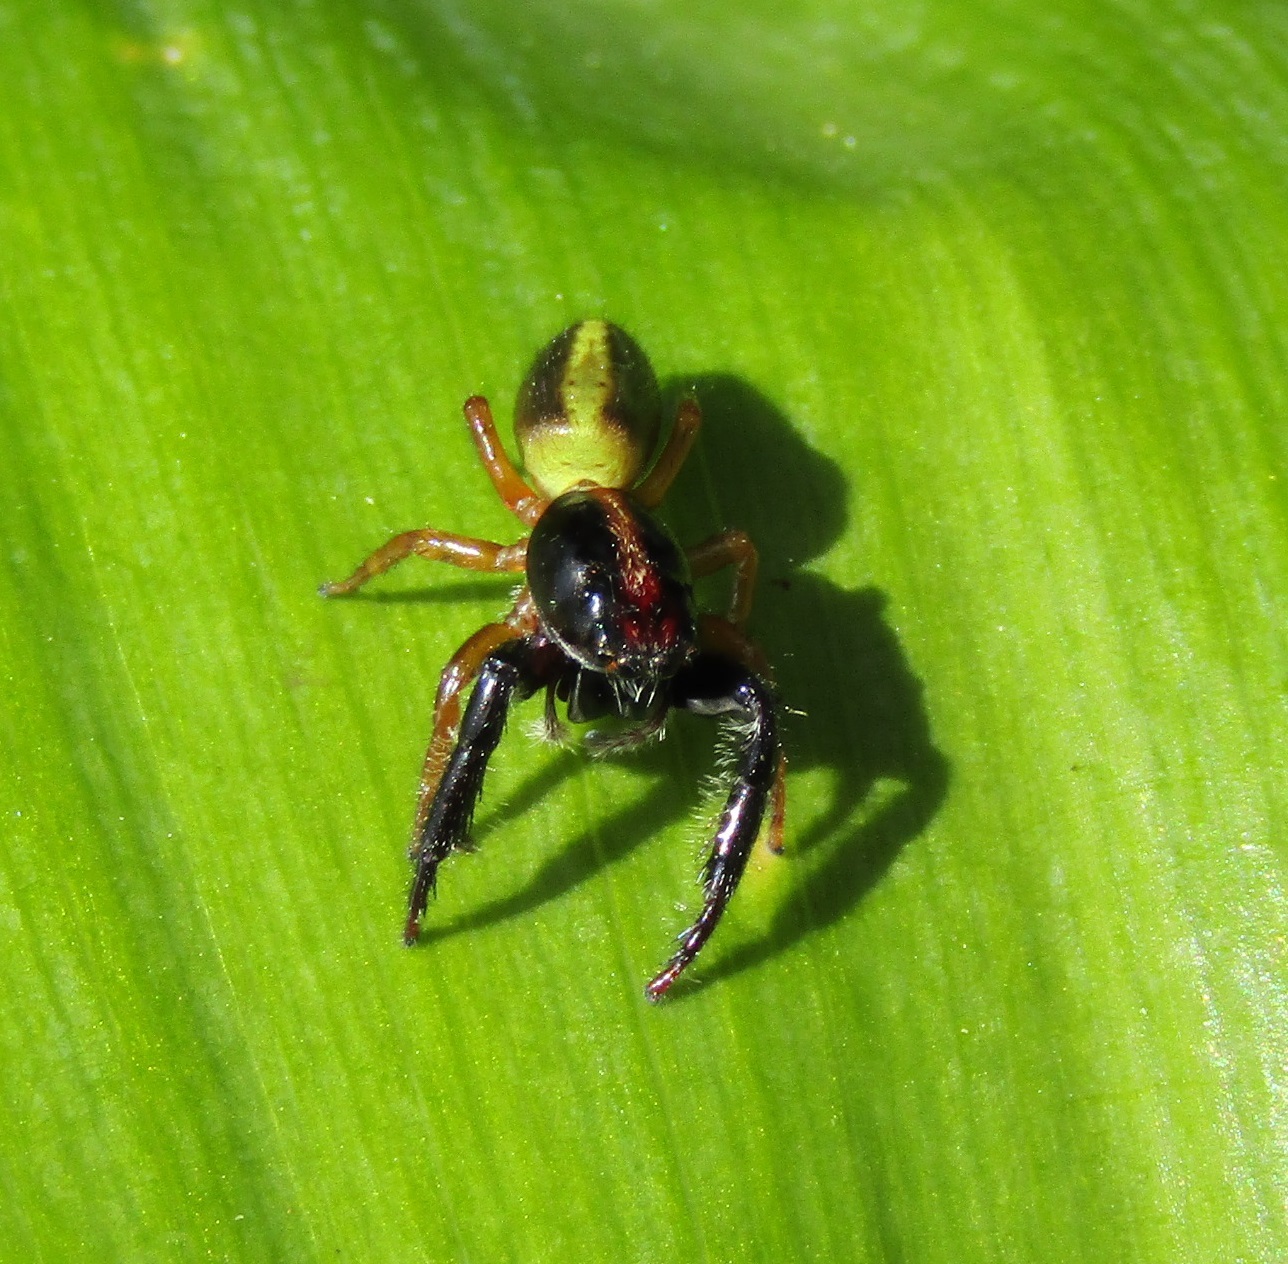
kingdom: Animalia
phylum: Arthropoda
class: Arachnida
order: Araneae
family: Salticidae
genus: Trite
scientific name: Trite planiceps
